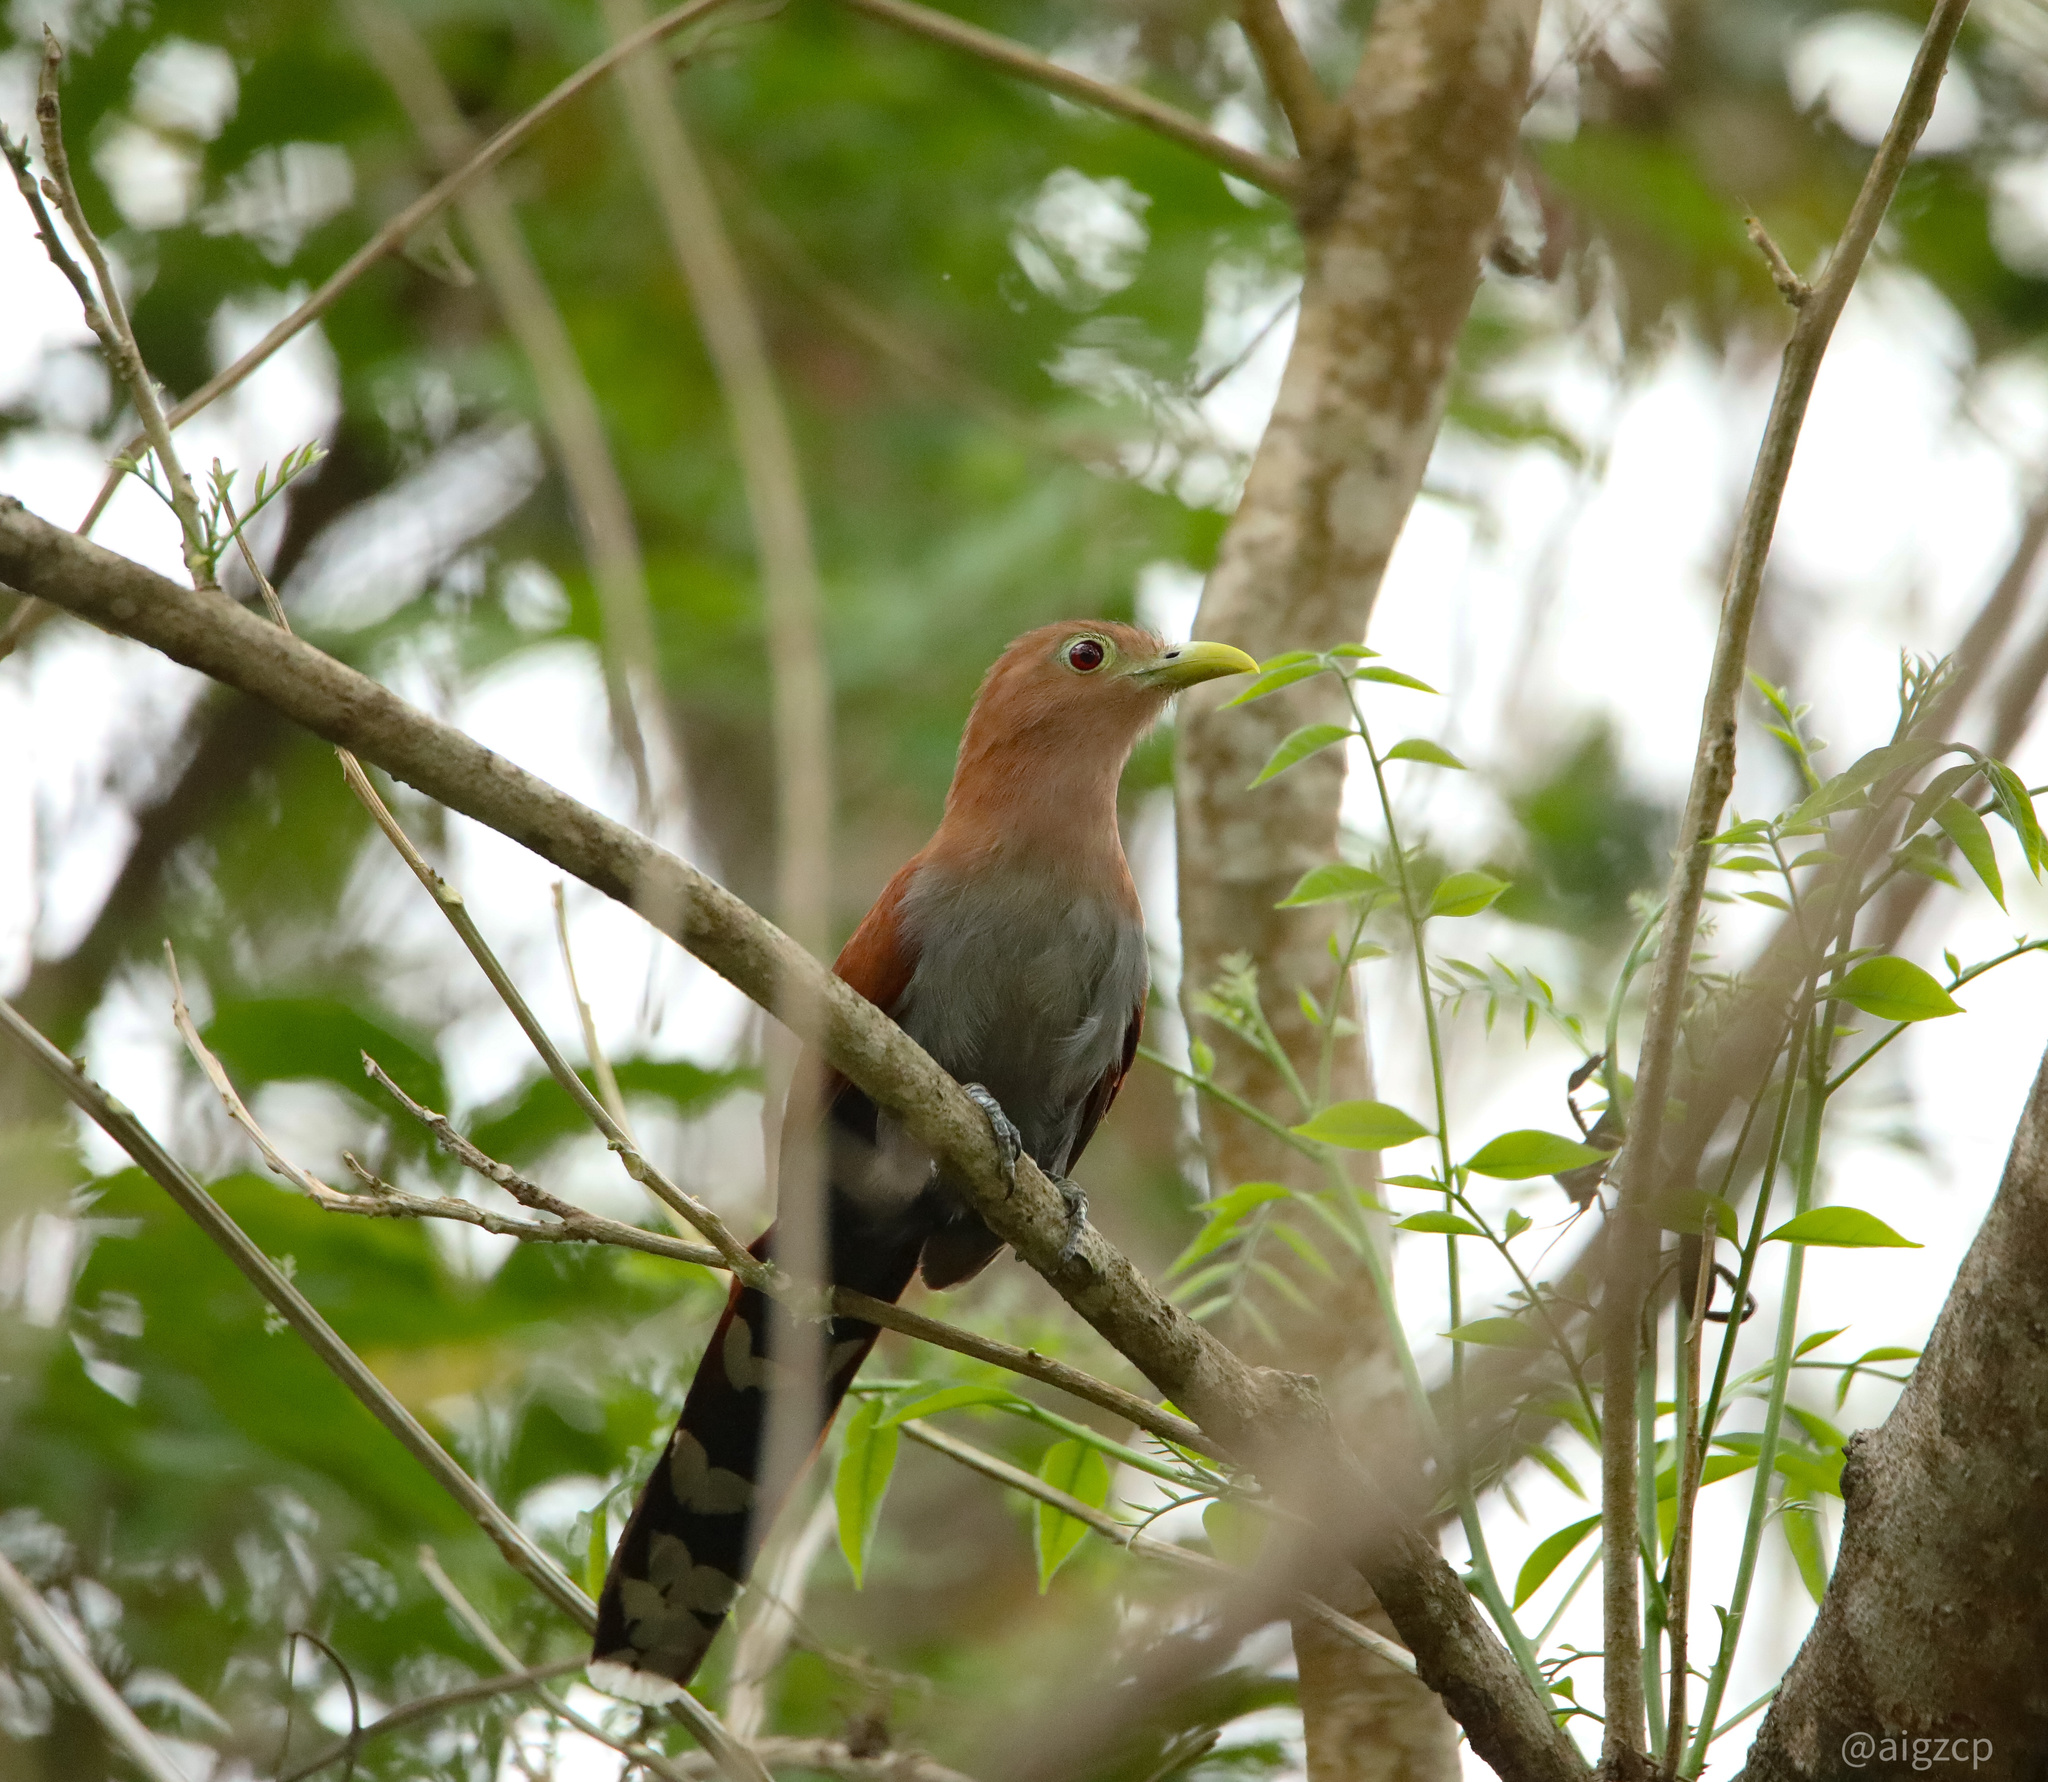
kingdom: Animalia
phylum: Chordata
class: Aves
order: Cuculiformes
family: Cuculidae
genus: Piaya
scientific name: Piaya cayana
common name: Squirrel cuckoo
